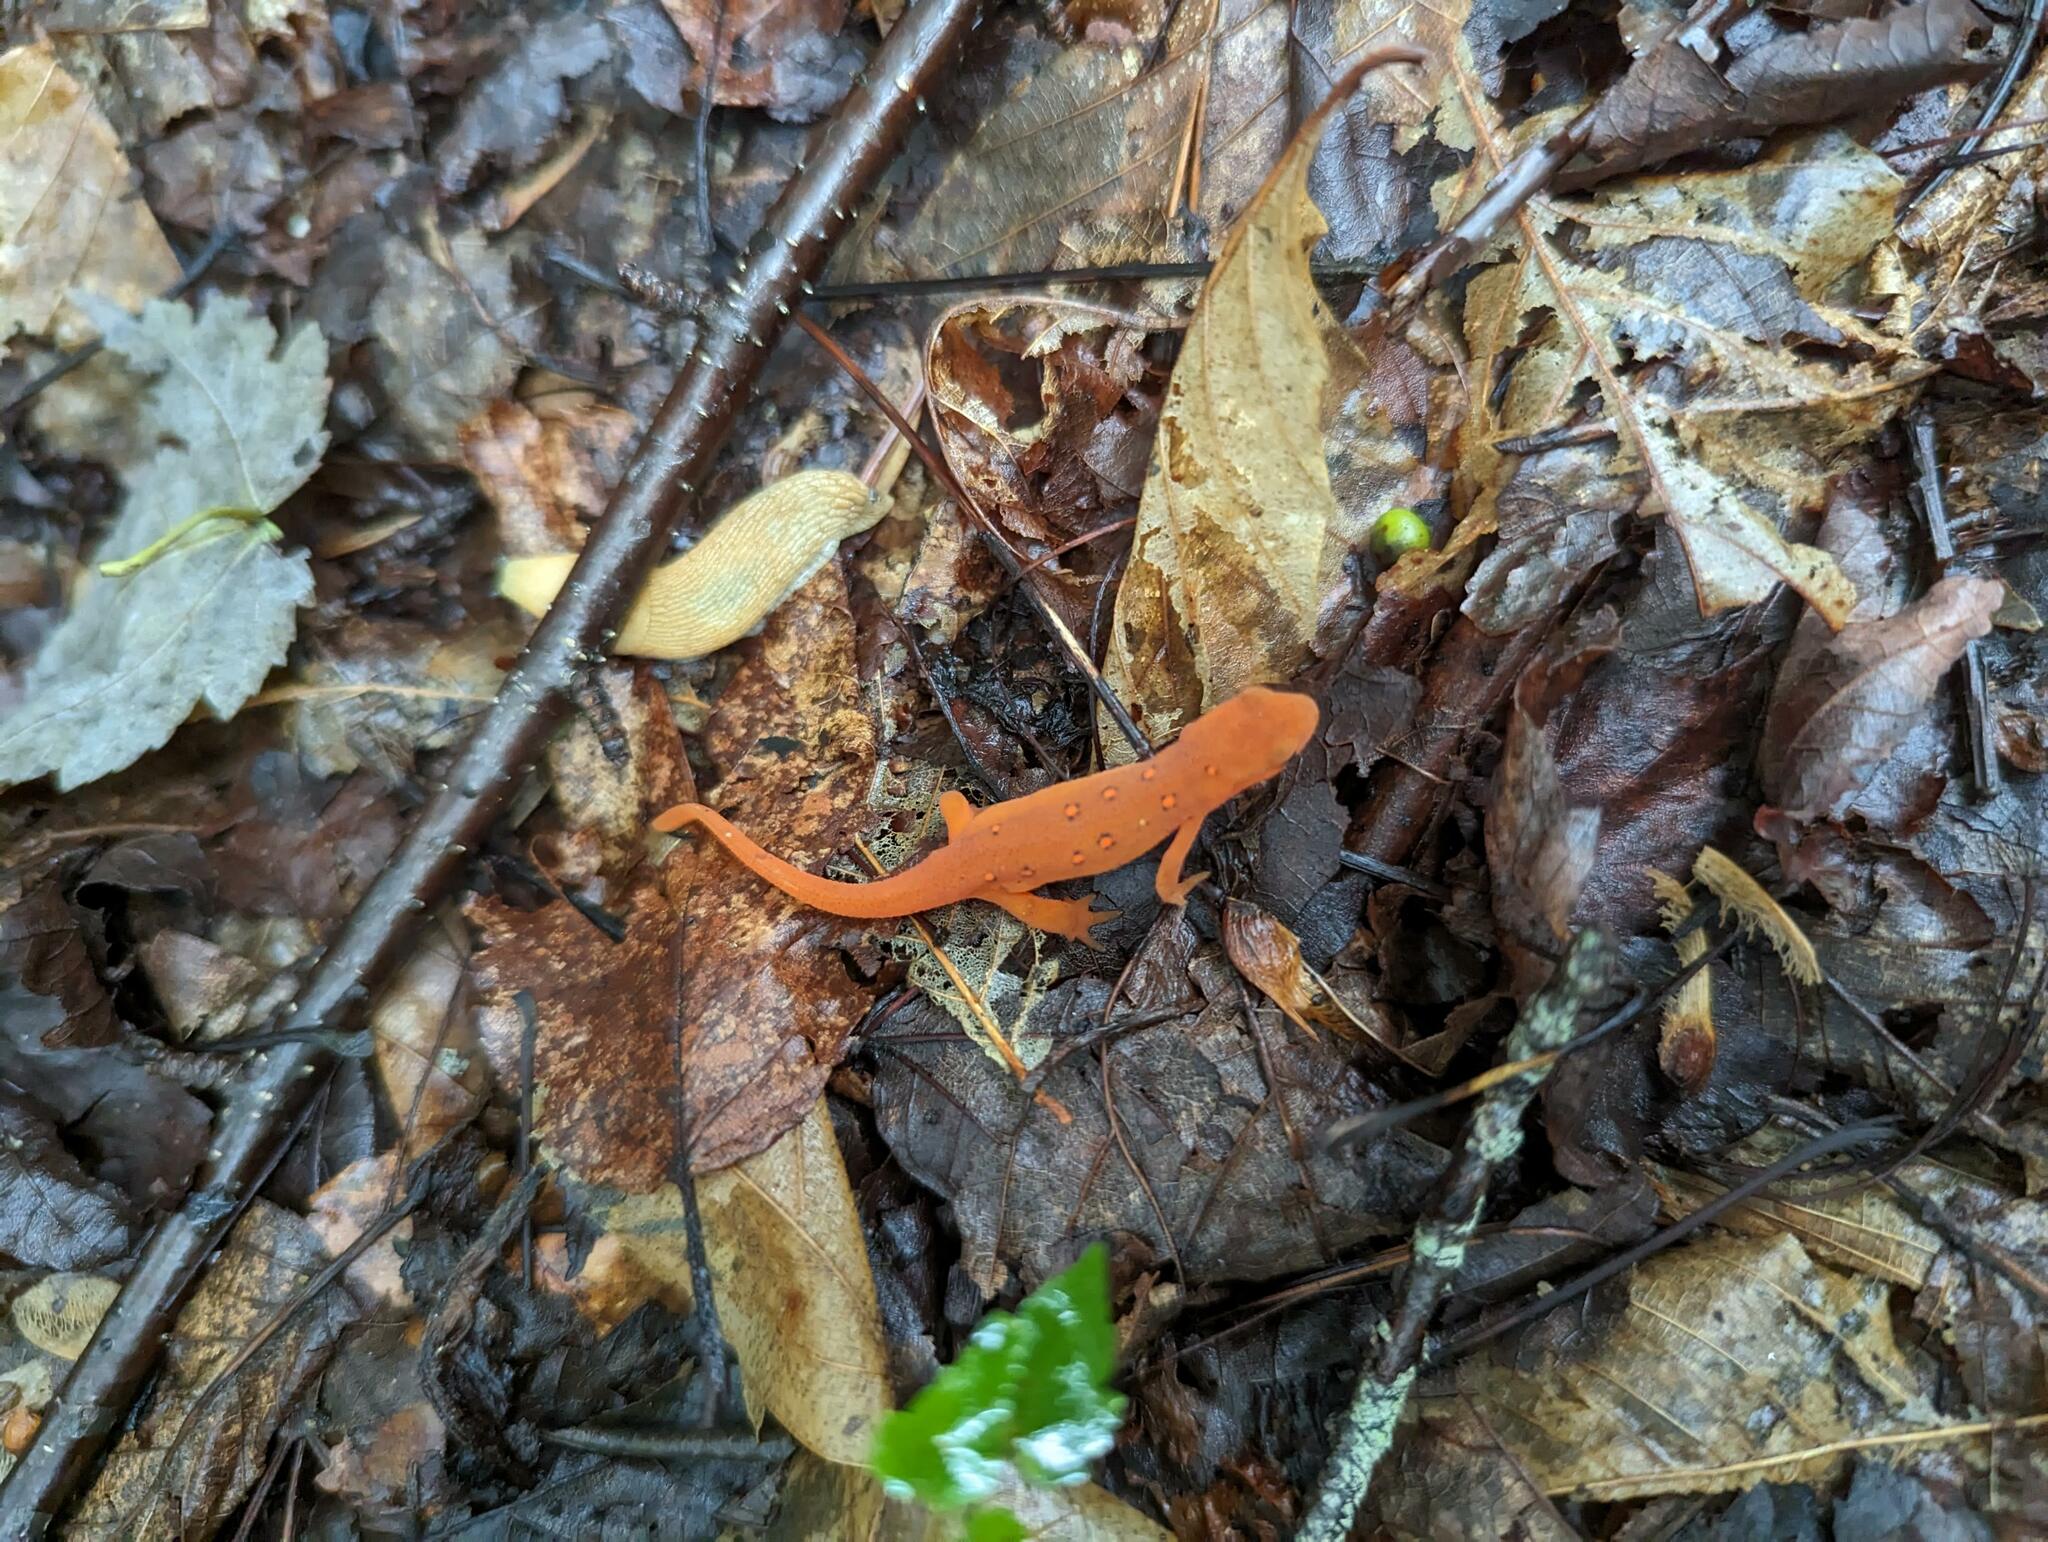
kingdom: Animalia
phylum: Chordata
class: Amphibia
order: Caudata
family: Salamandridae
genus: Notophthalmus
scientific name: Notophthalmus viridescens
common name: Eastern newt
